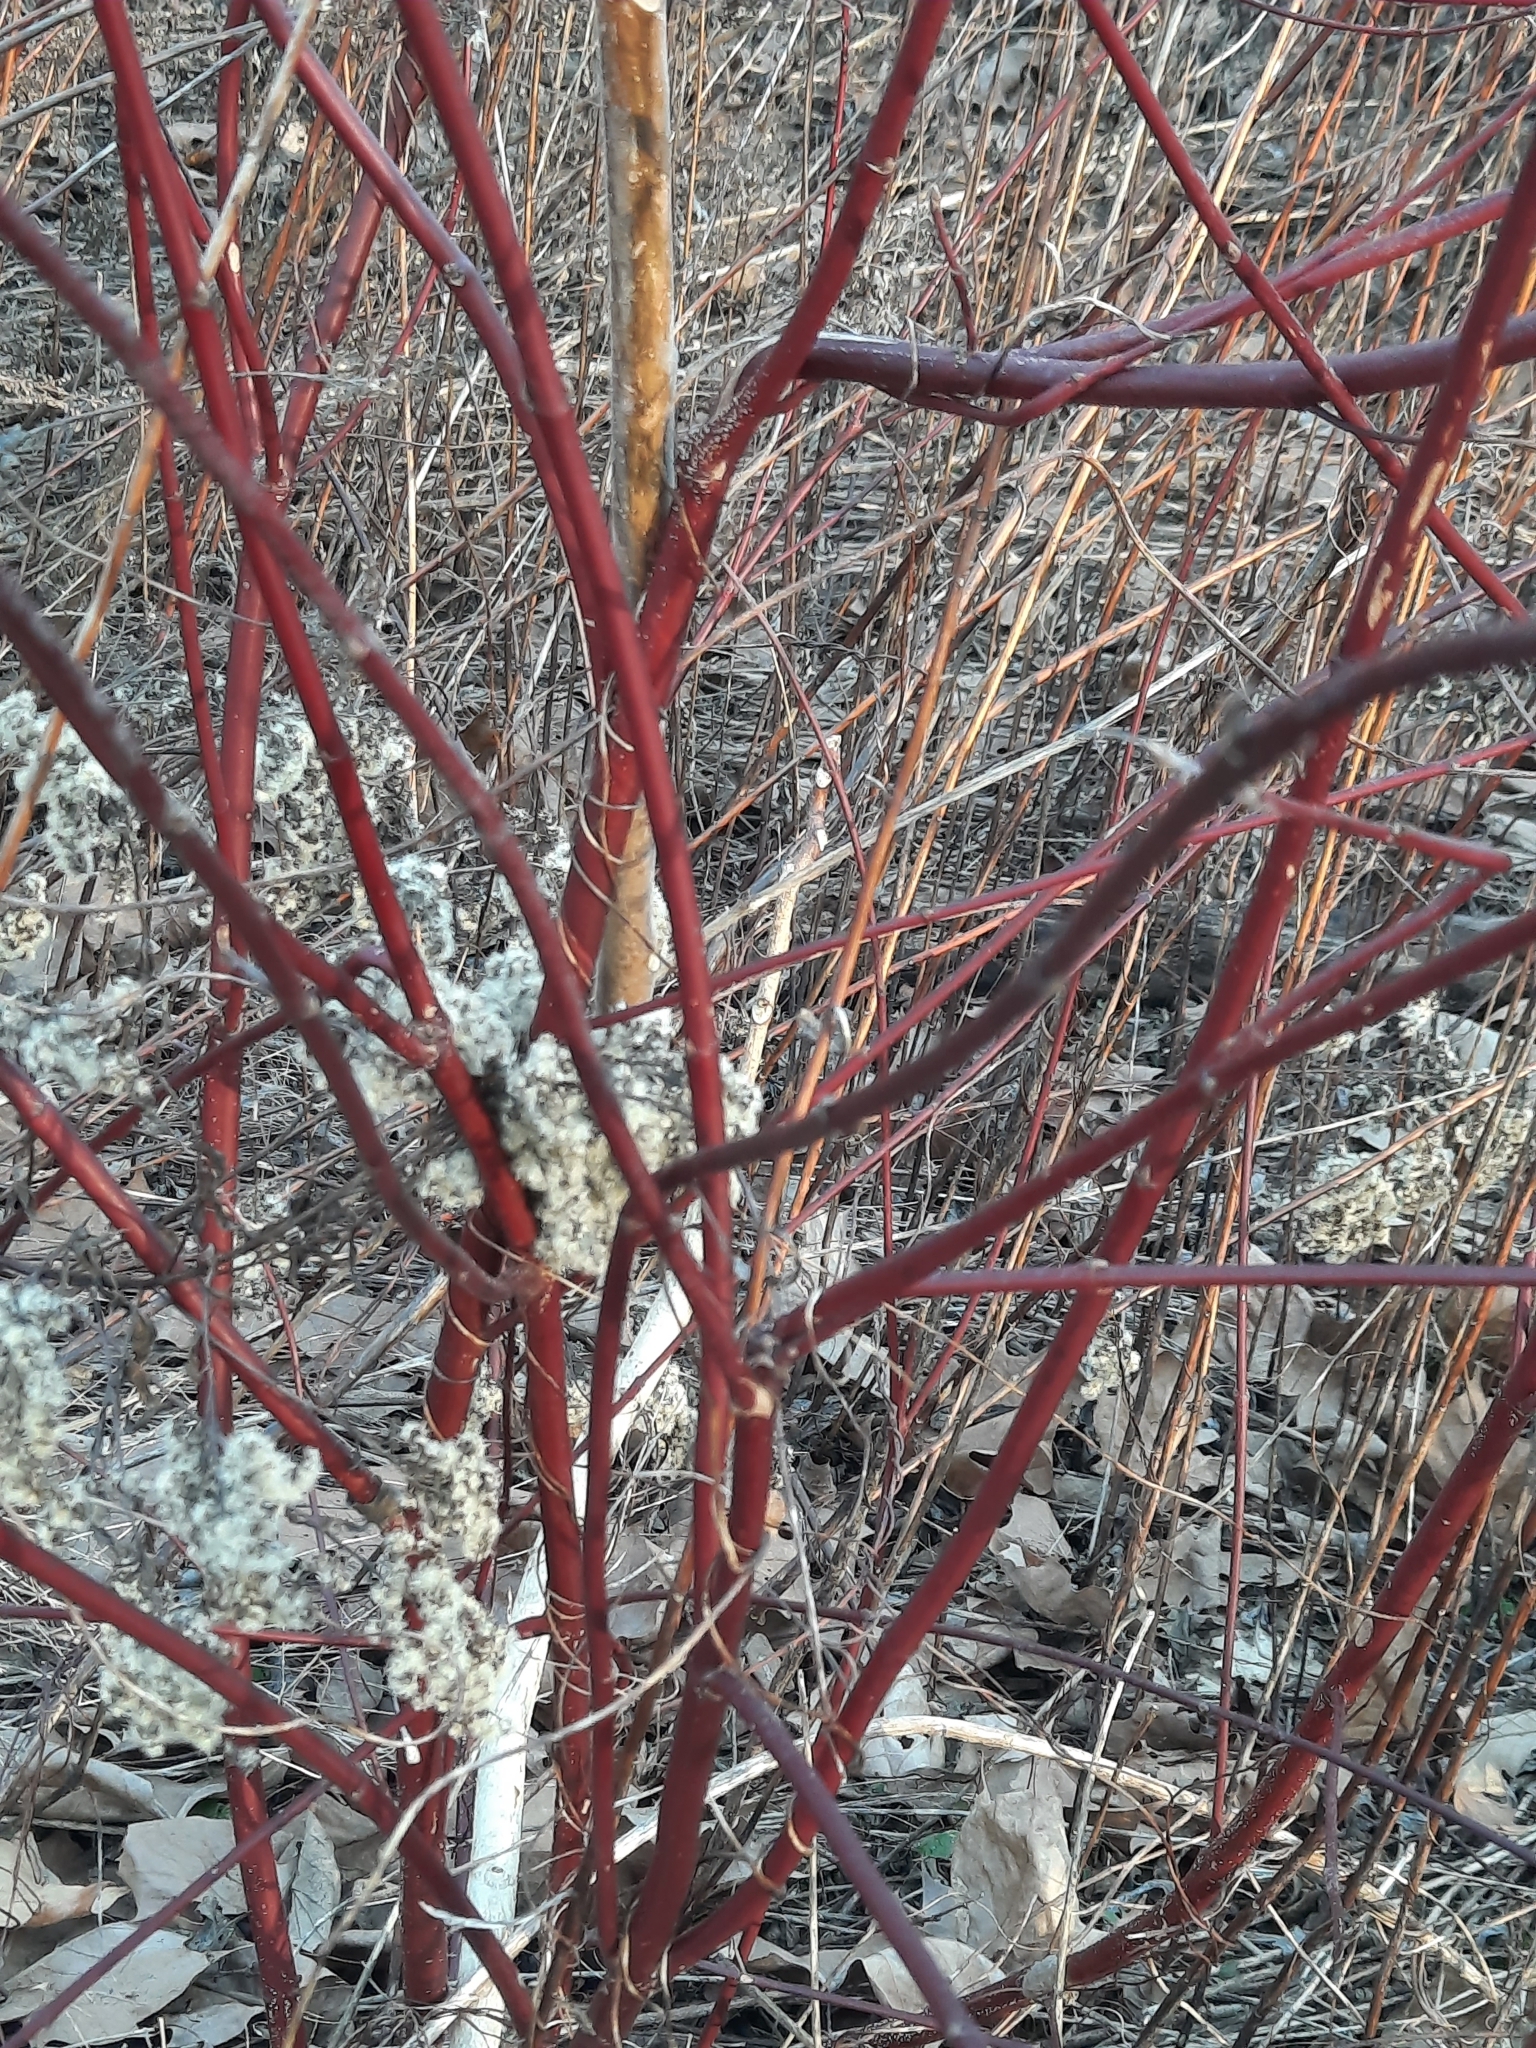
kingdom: Plantae
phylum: Tracheophyta
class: Magnoliopsida
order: Cornales
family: Cornaceae
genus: Cornus
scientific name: Cornus amomum
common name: Silky dogwood
